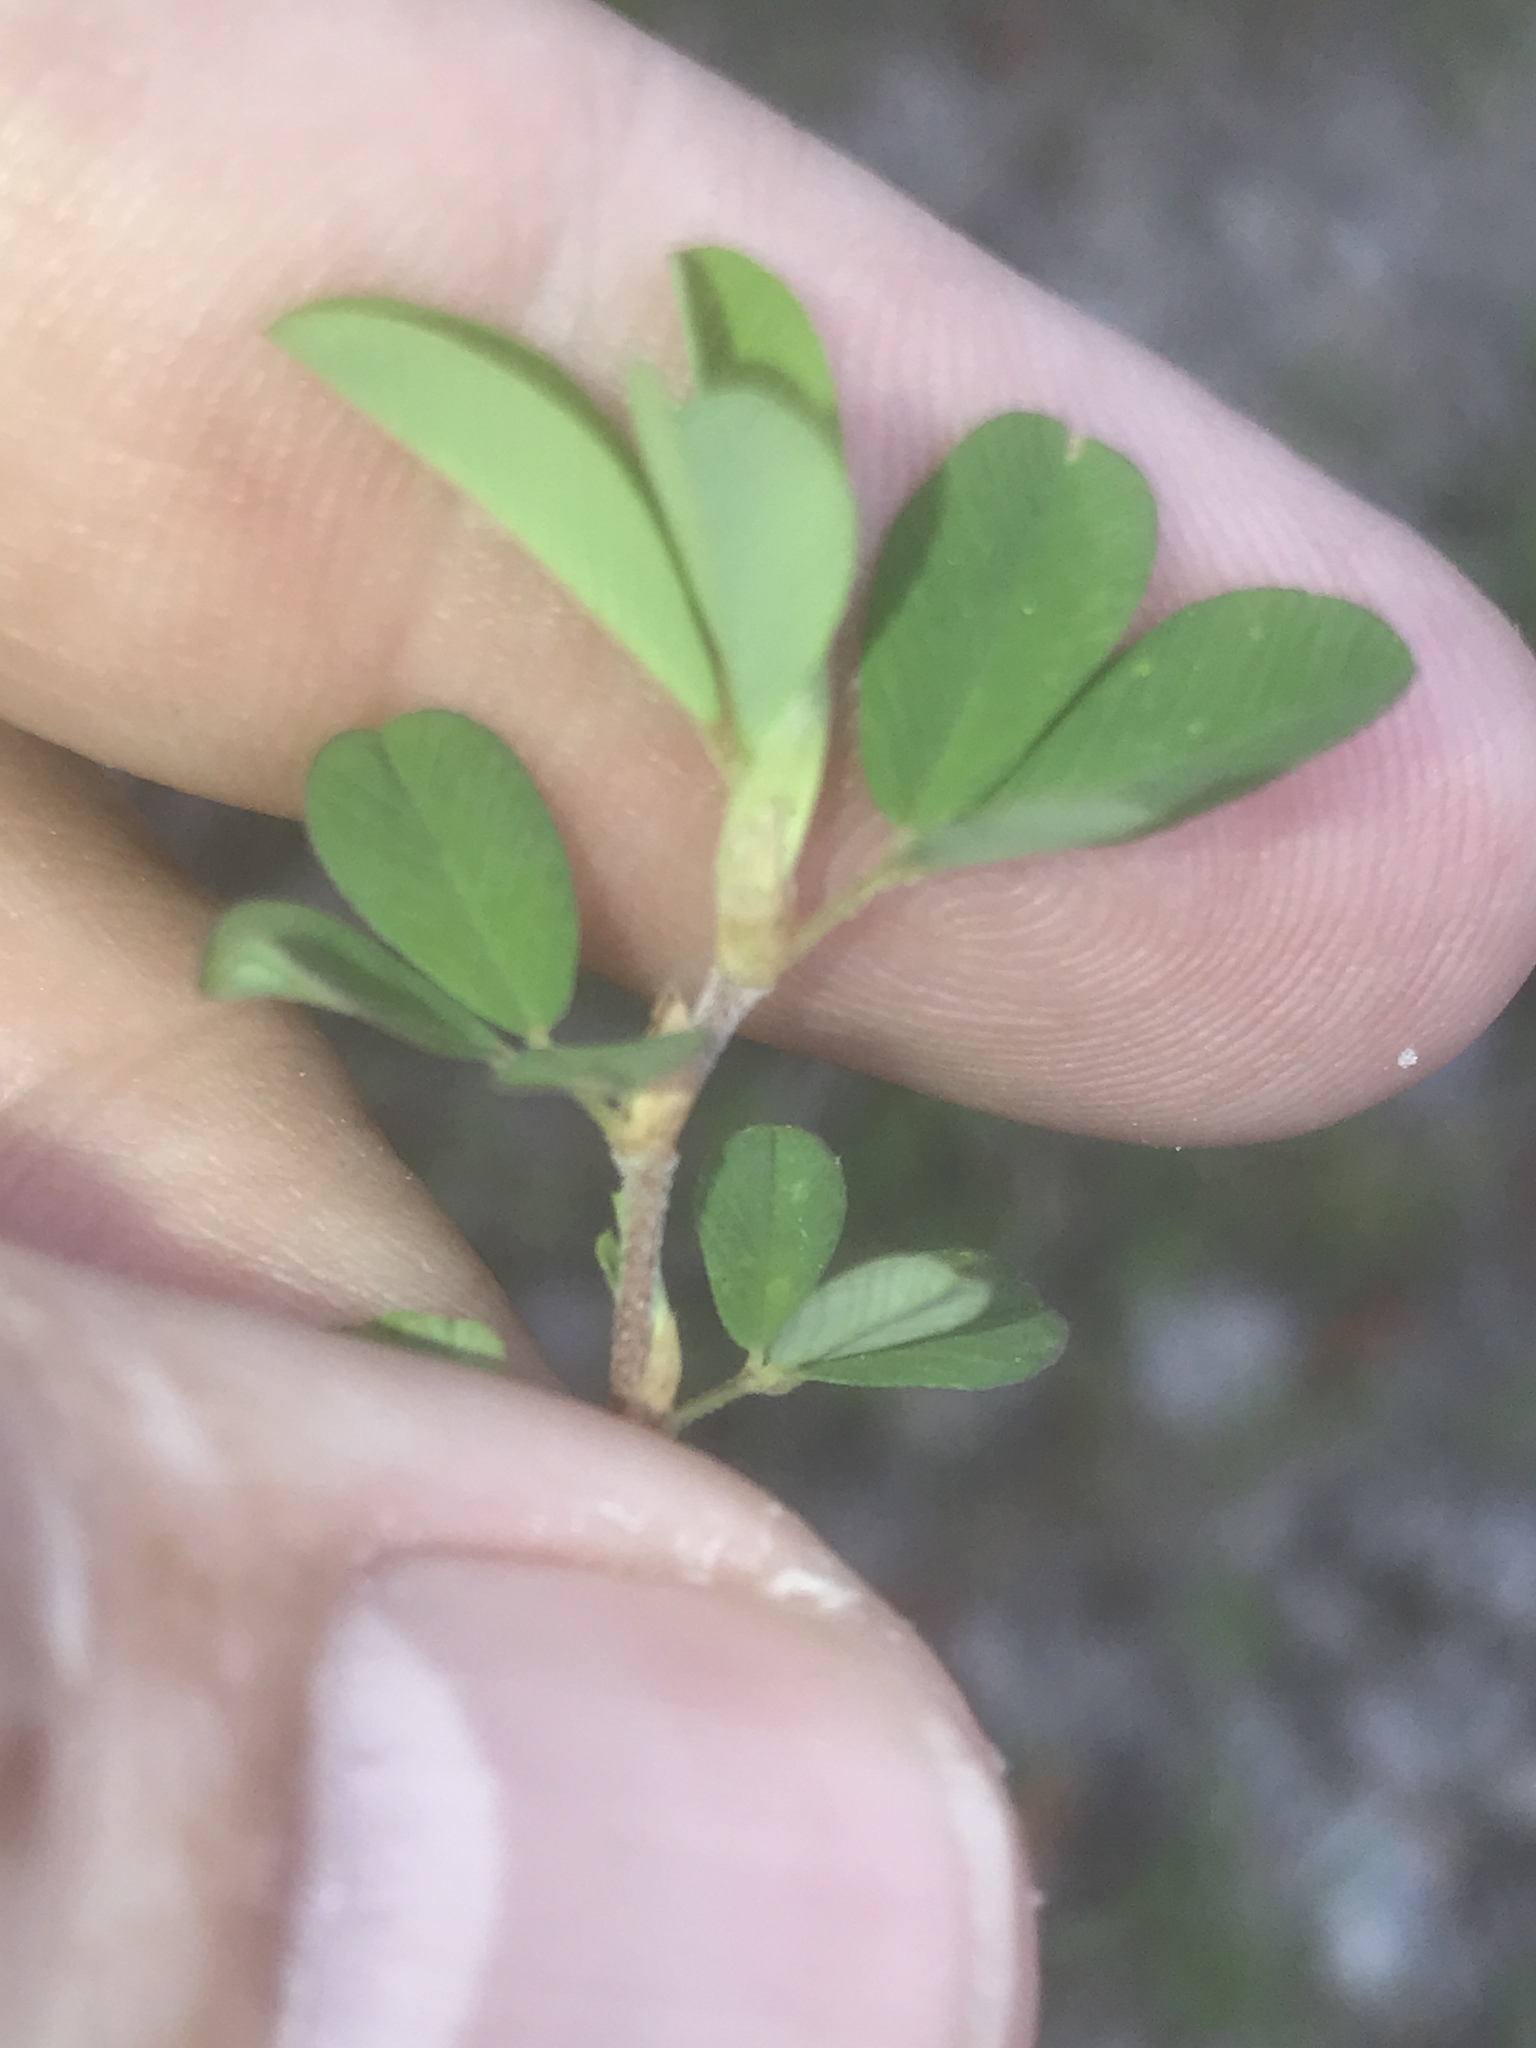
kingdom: Plantae
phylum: Tracheophyta
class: Magnoliopsida
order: Fabales
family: Fabaceae
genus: Kummerowia
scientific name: Kummerowia striata
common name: Japanese clover
